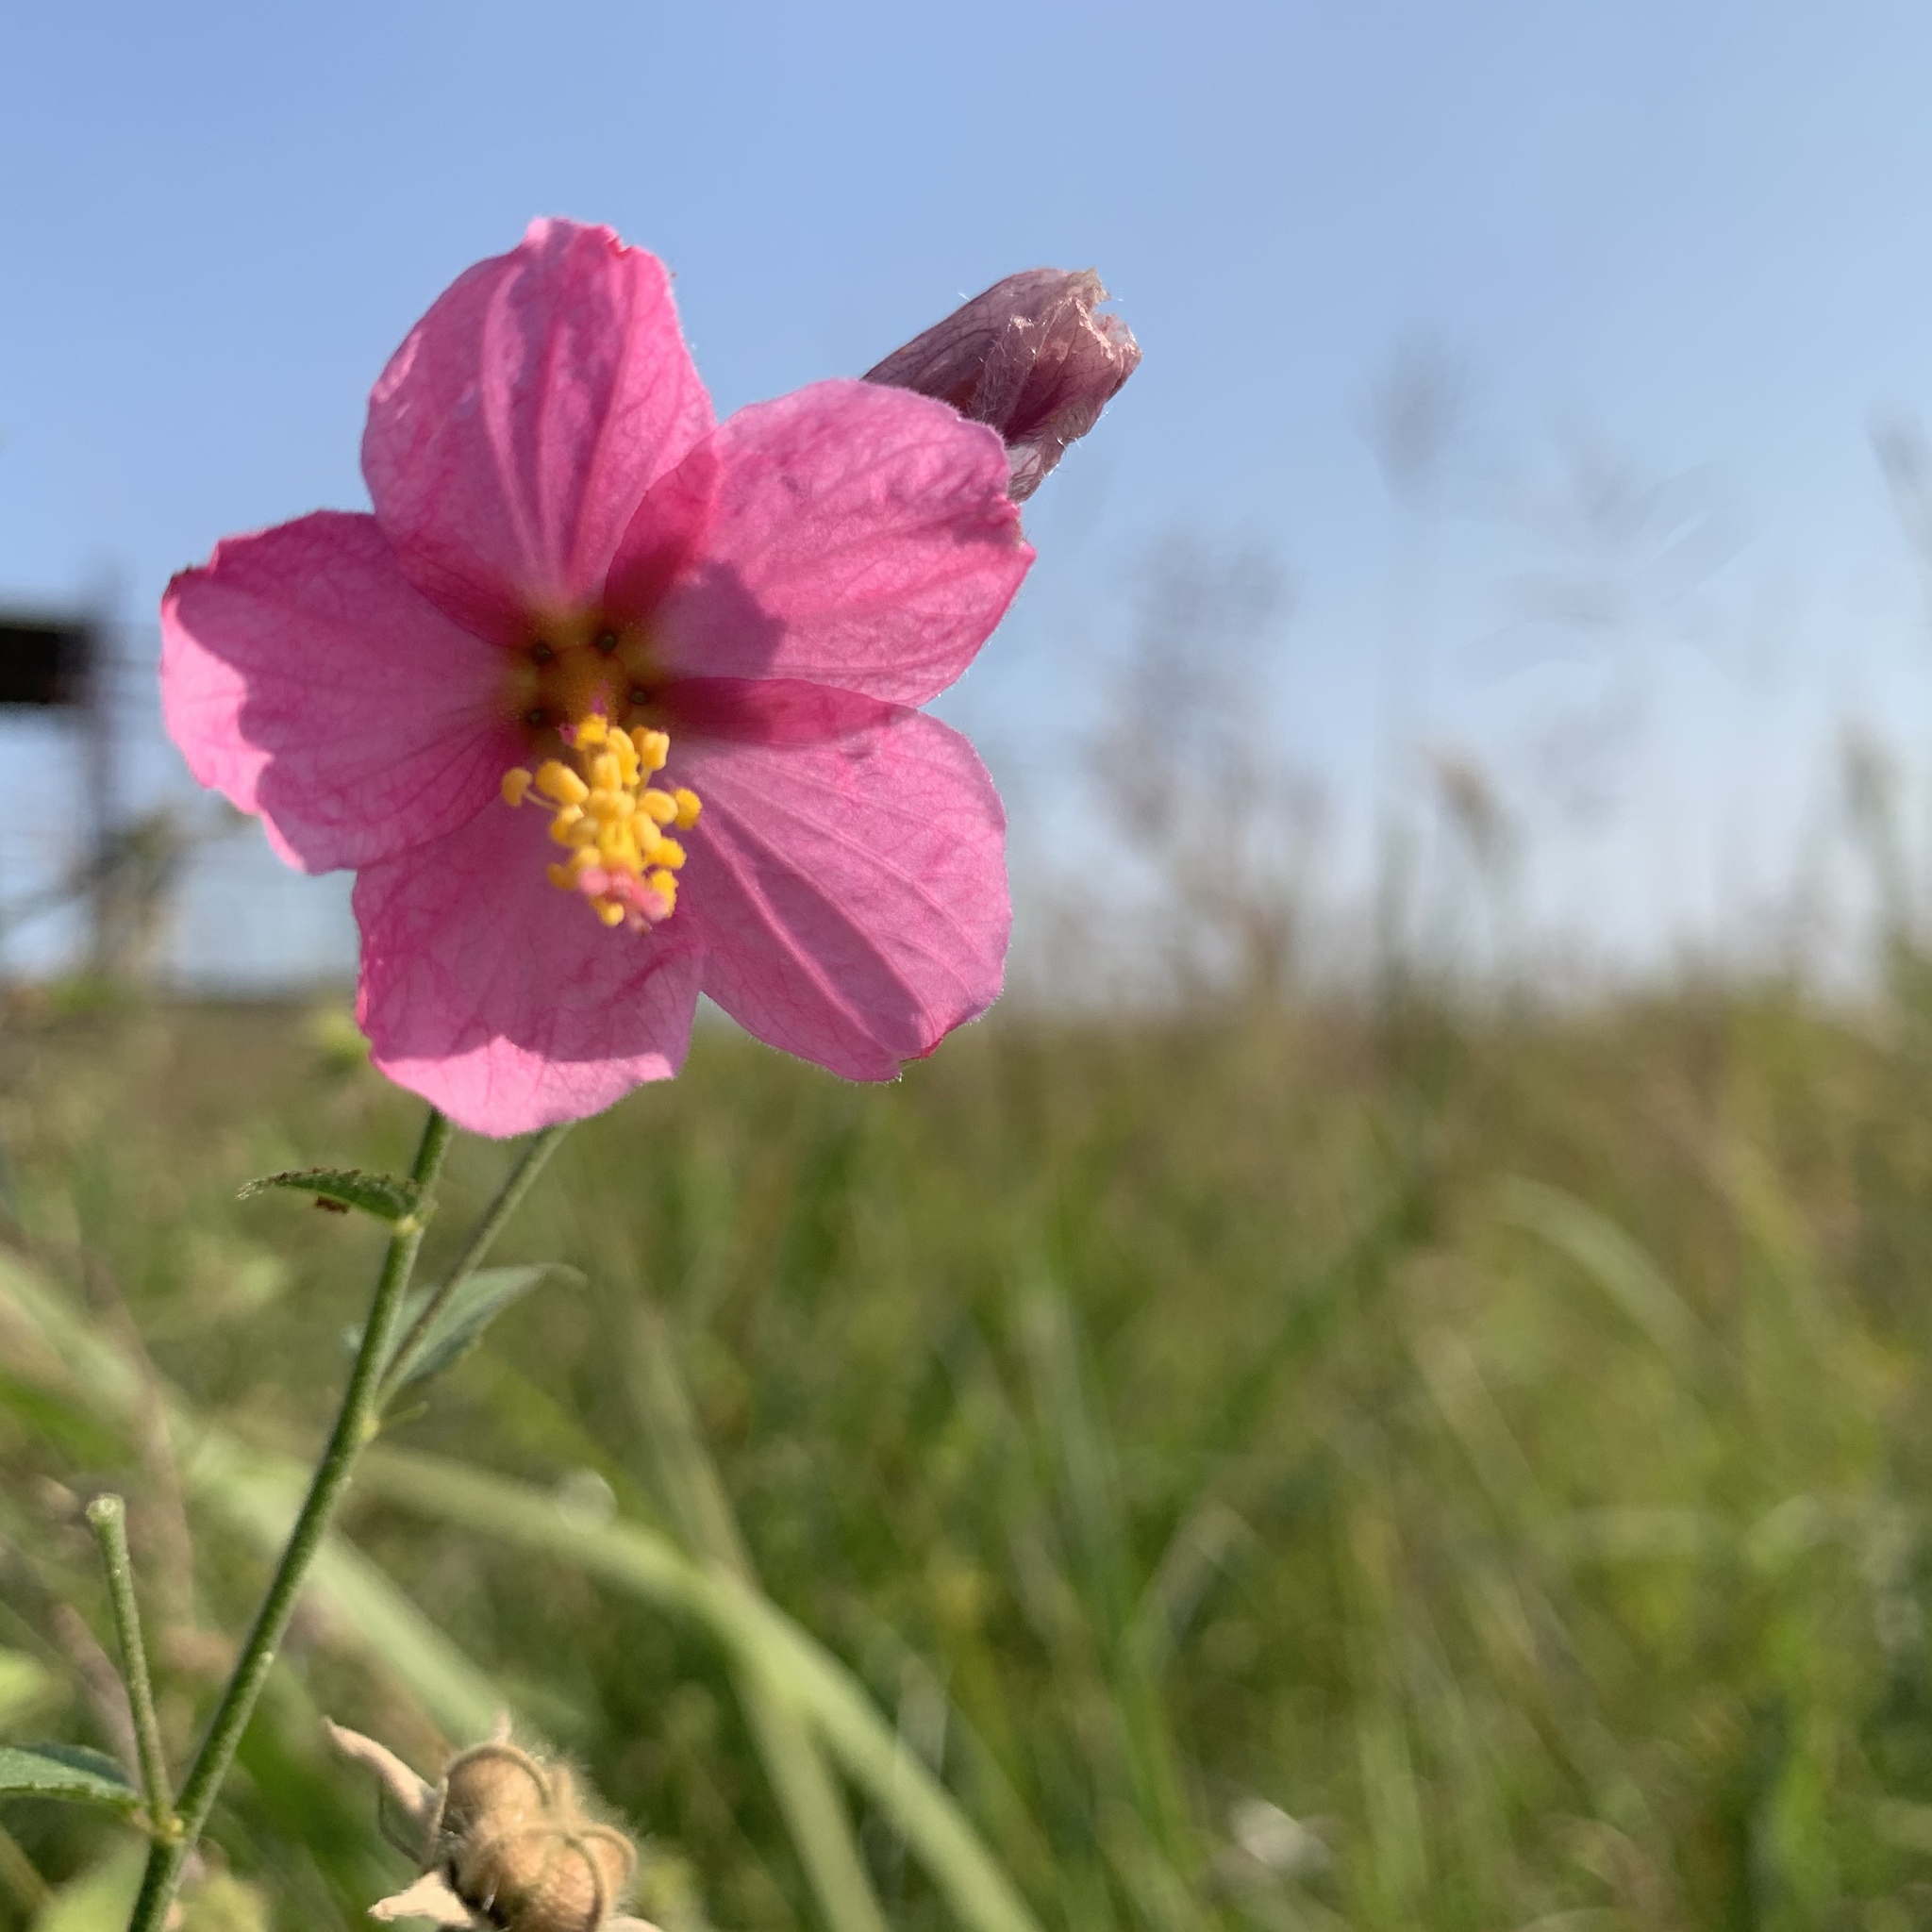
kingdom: Plantae
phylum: Tracheophyta
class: Magnoliopsida
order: Malvales
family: Malvaceae
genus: Kosteletzkya
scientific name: Kosteletzkya pentacarpos
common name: Virginia saltmarsh mallow
